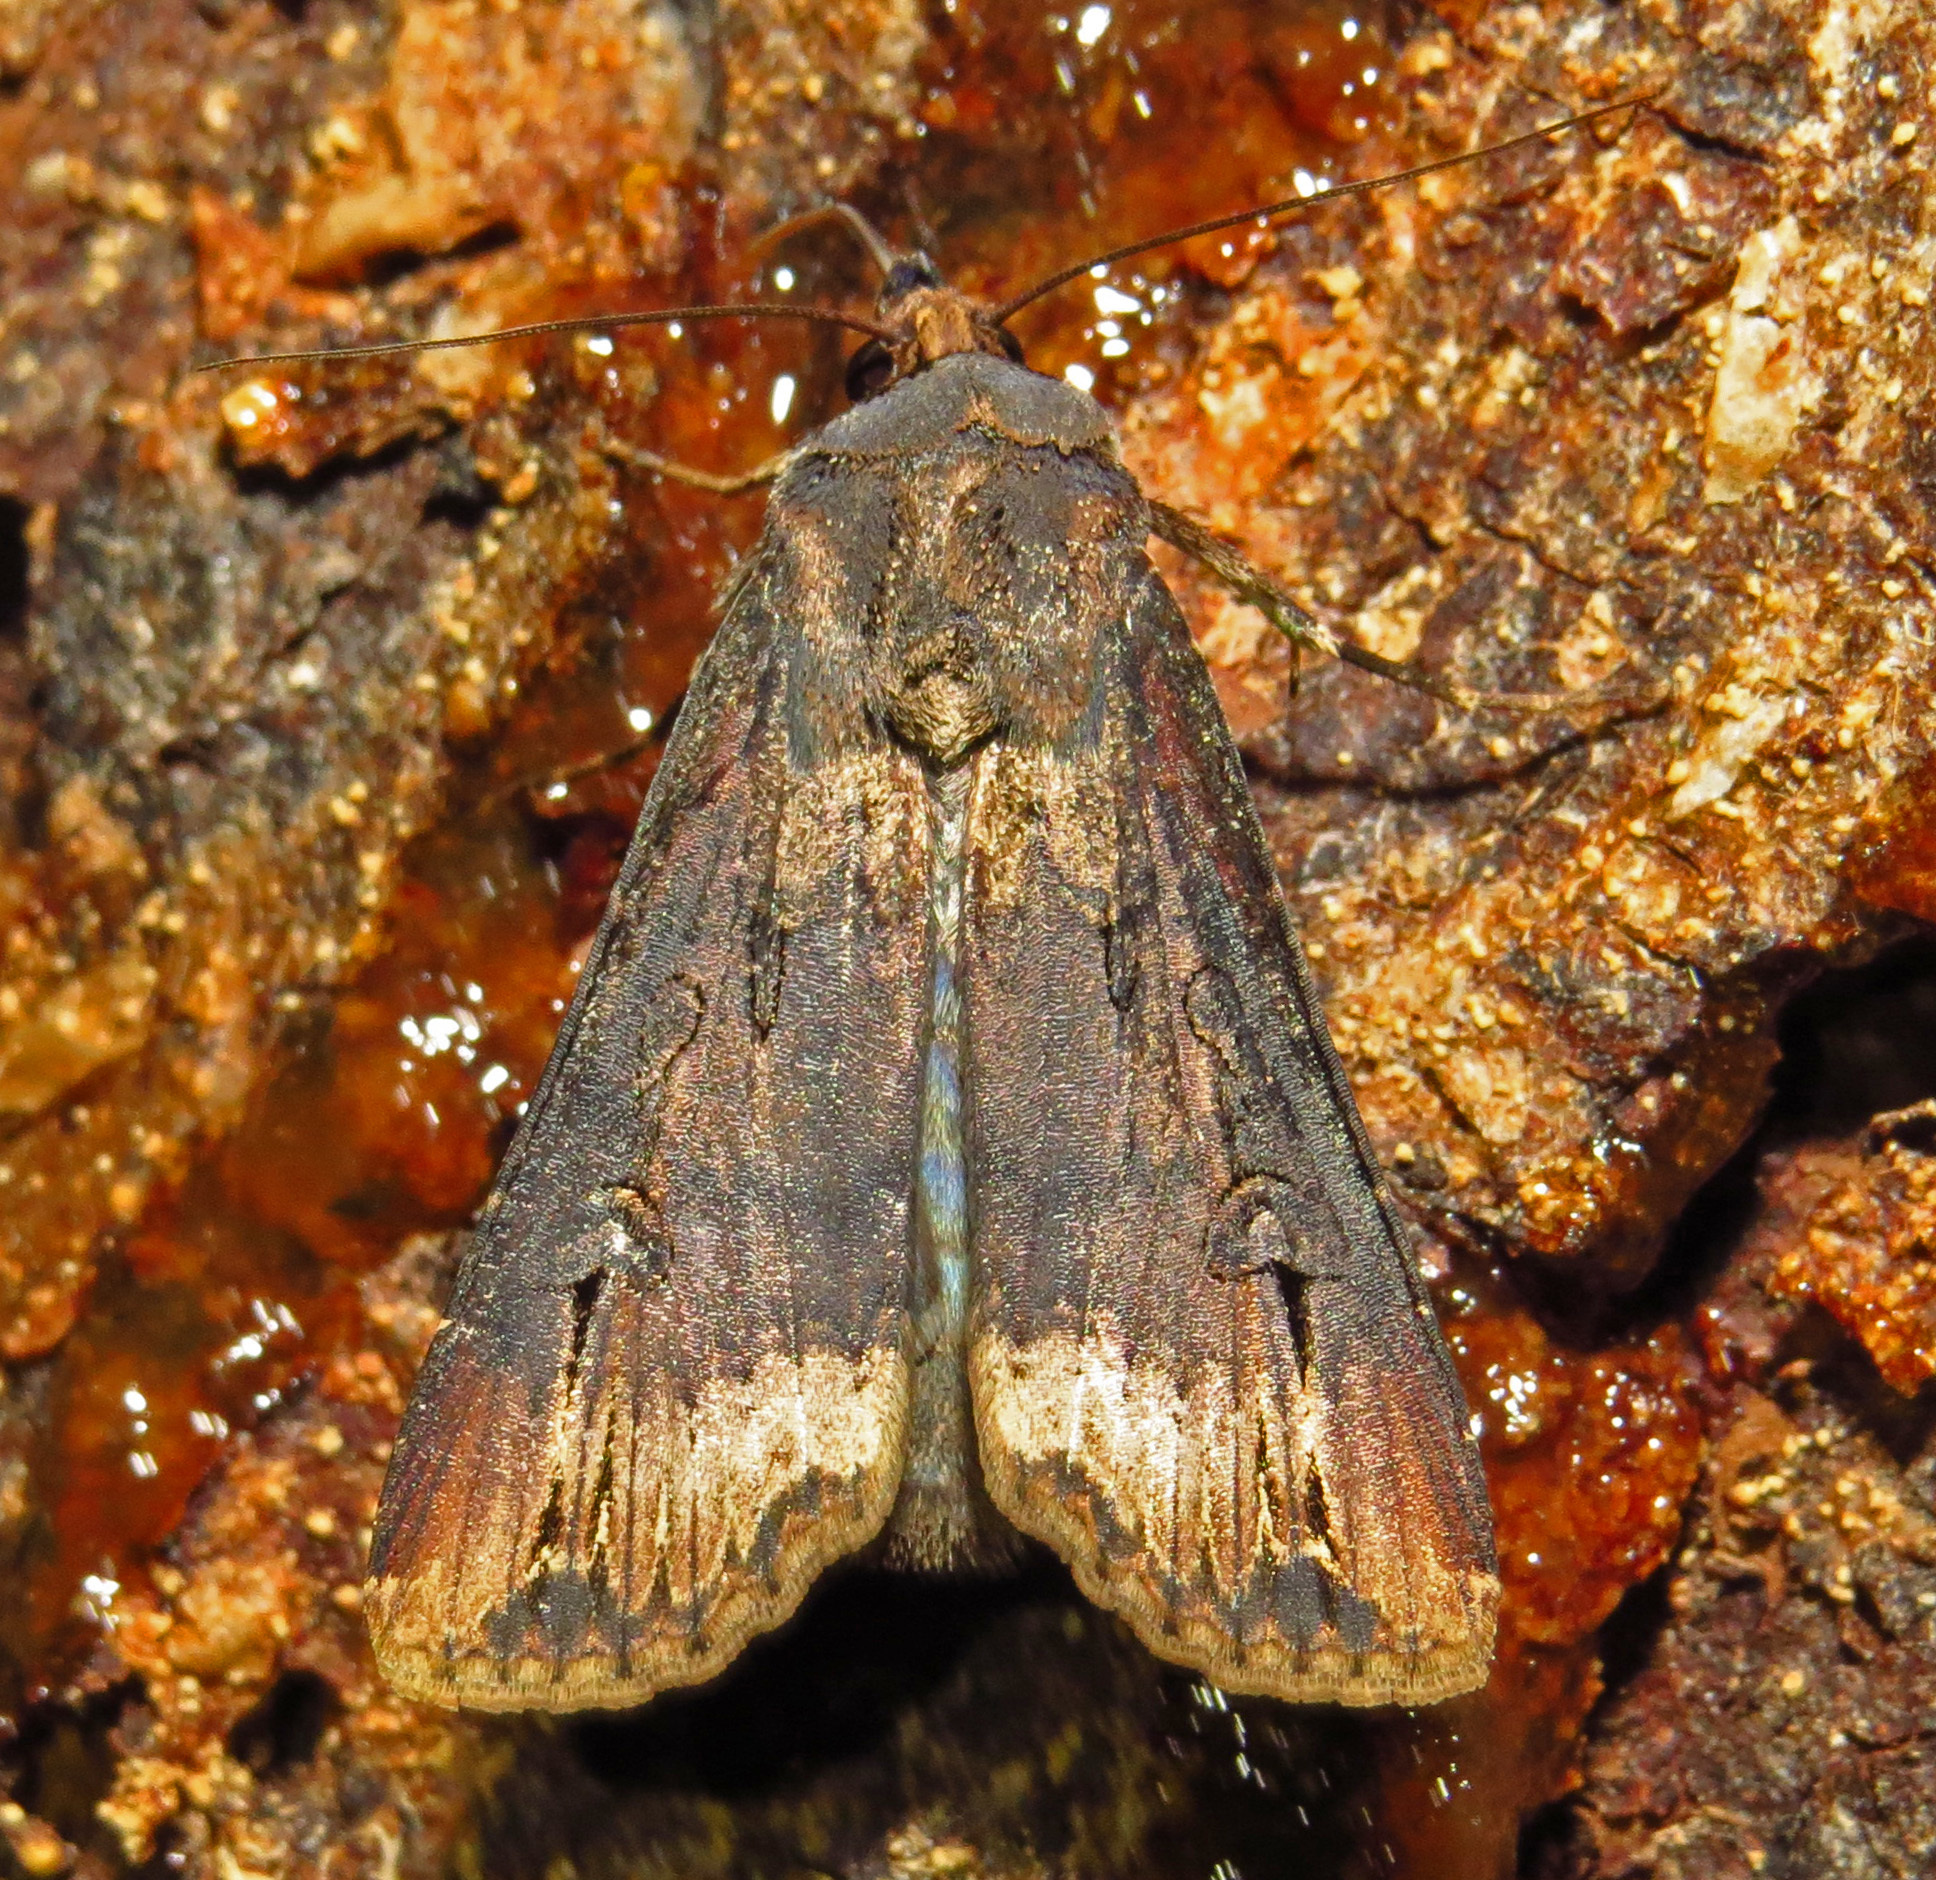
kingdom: Animalia
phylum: Arthropoda
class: Insecta
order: Lepidoptera
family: Noctuidae
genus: Agrotis
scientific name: Agrotis ipsilon
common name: Dark sword-grass
